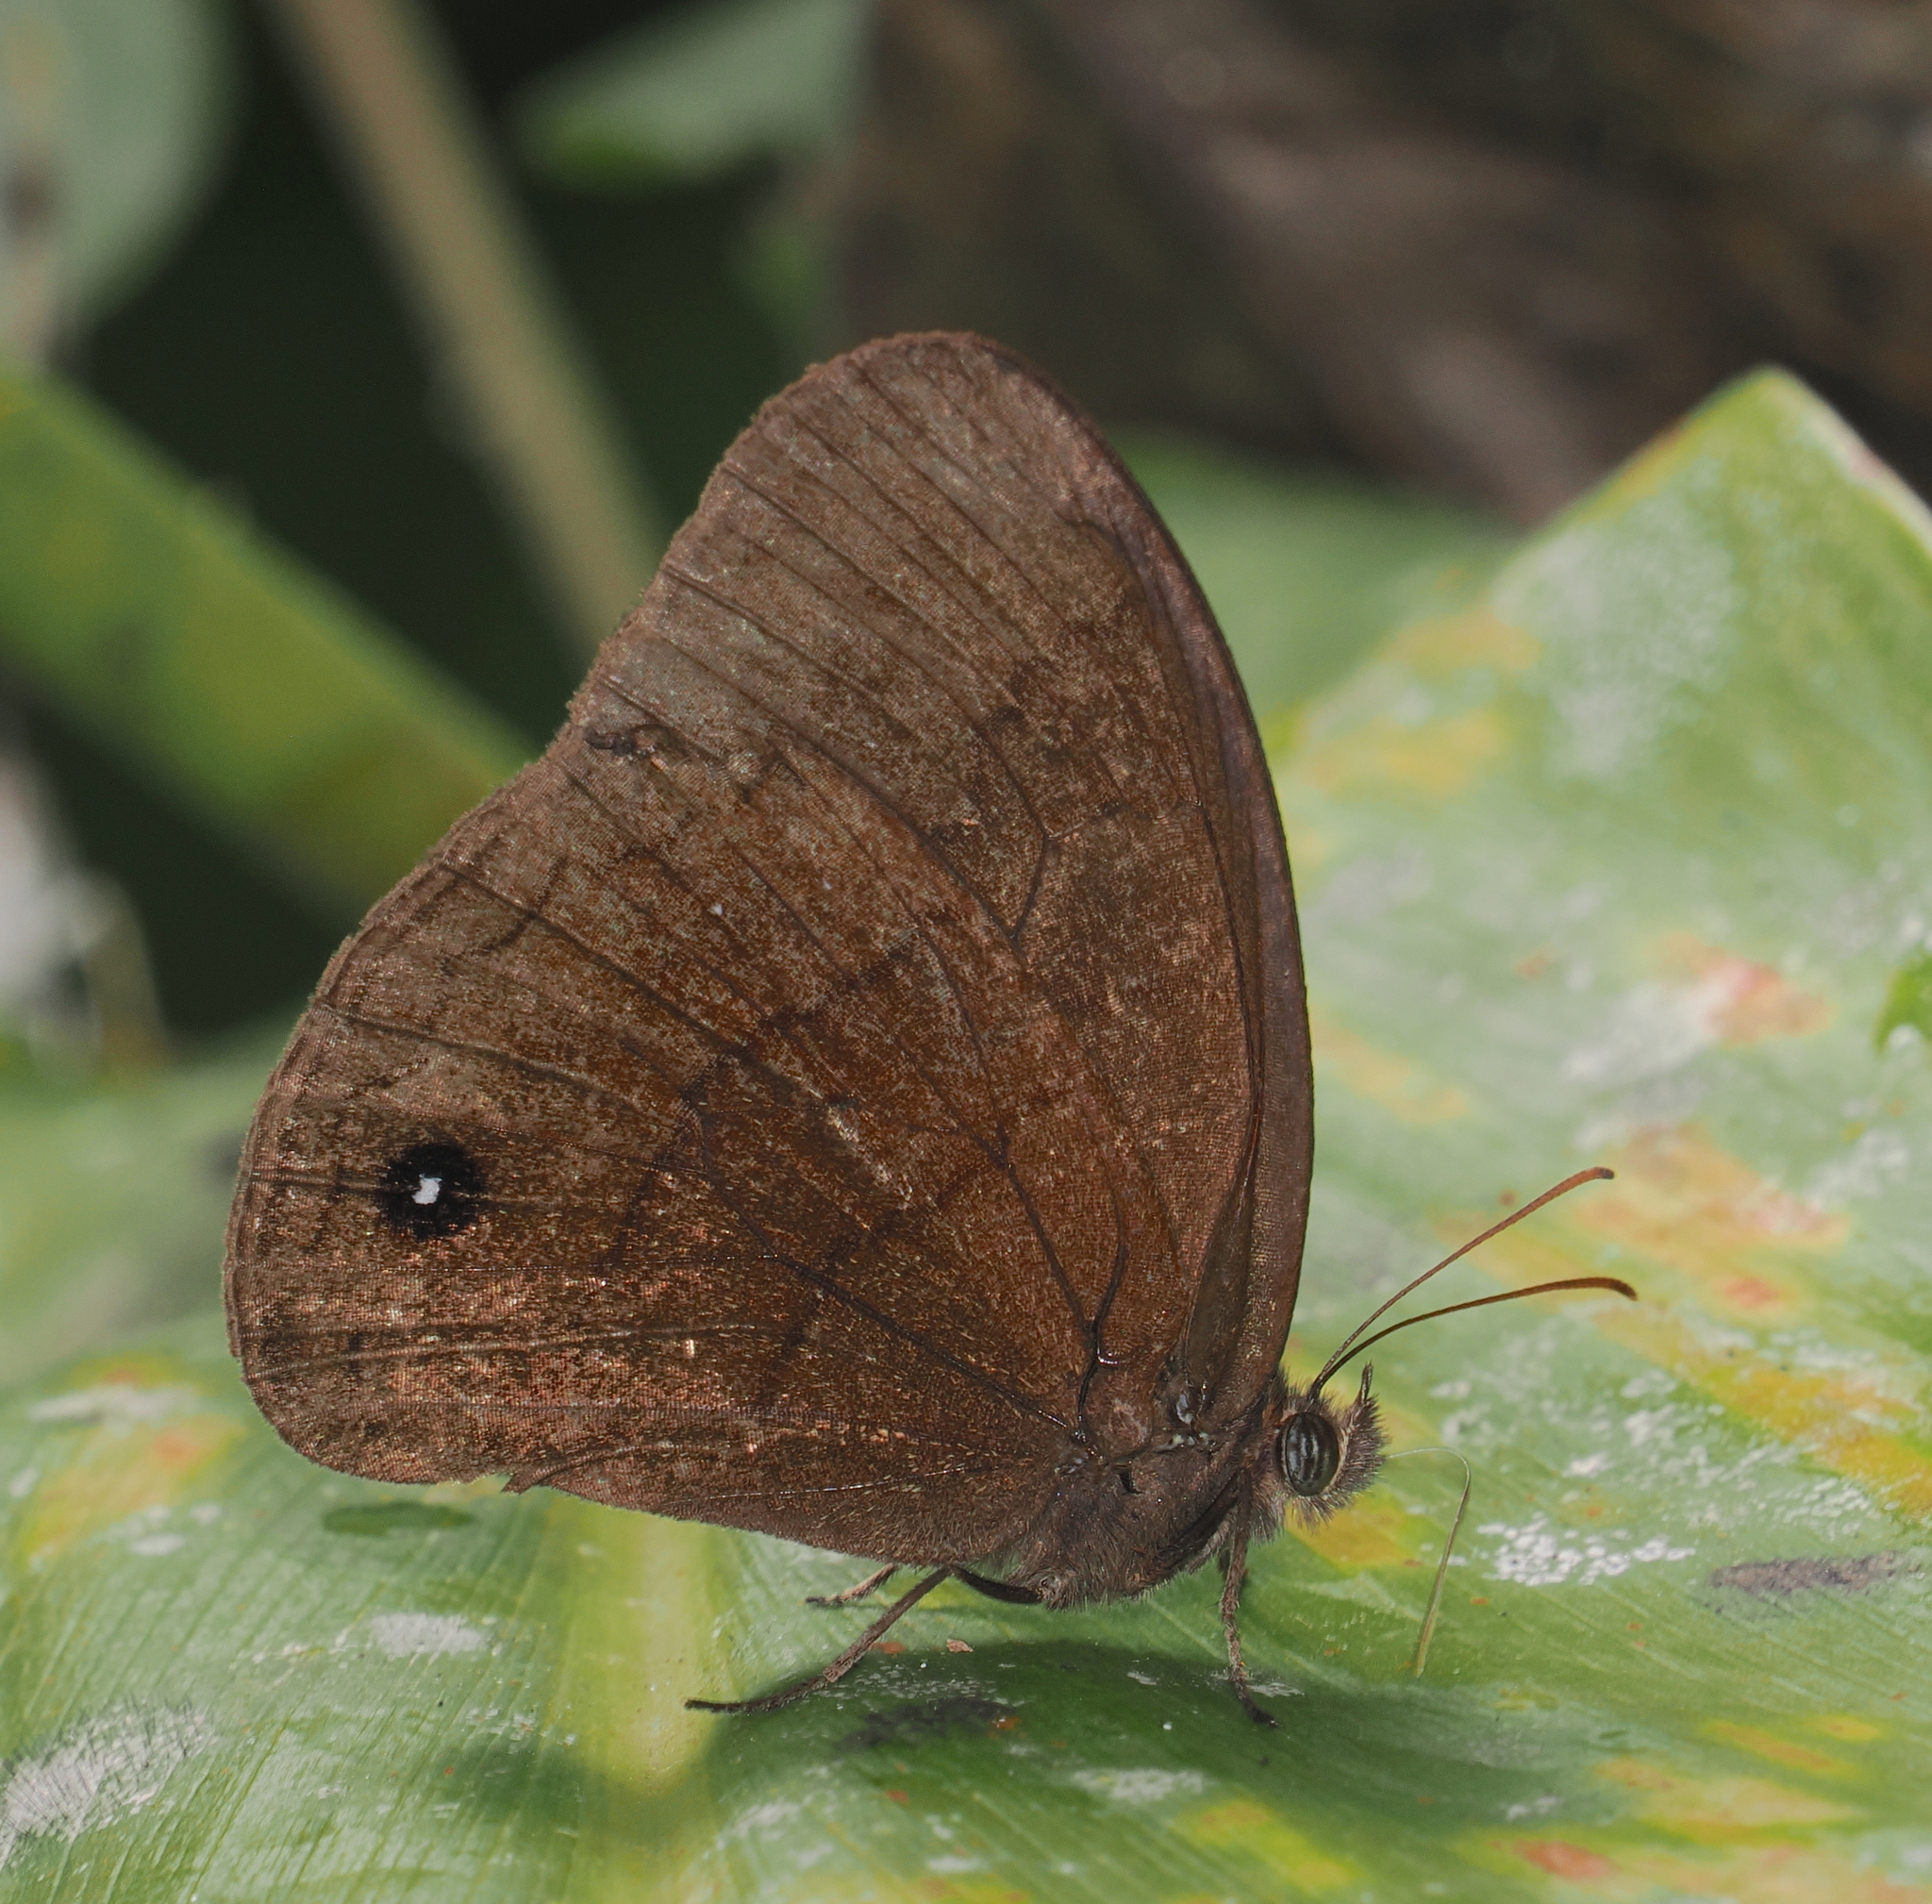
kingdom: Animalia
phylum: Arthropoda
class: Insecta
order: Lepidoptera
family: Nymphalidae
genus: Forsterinaria
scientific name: Forsterinaria neonympha
